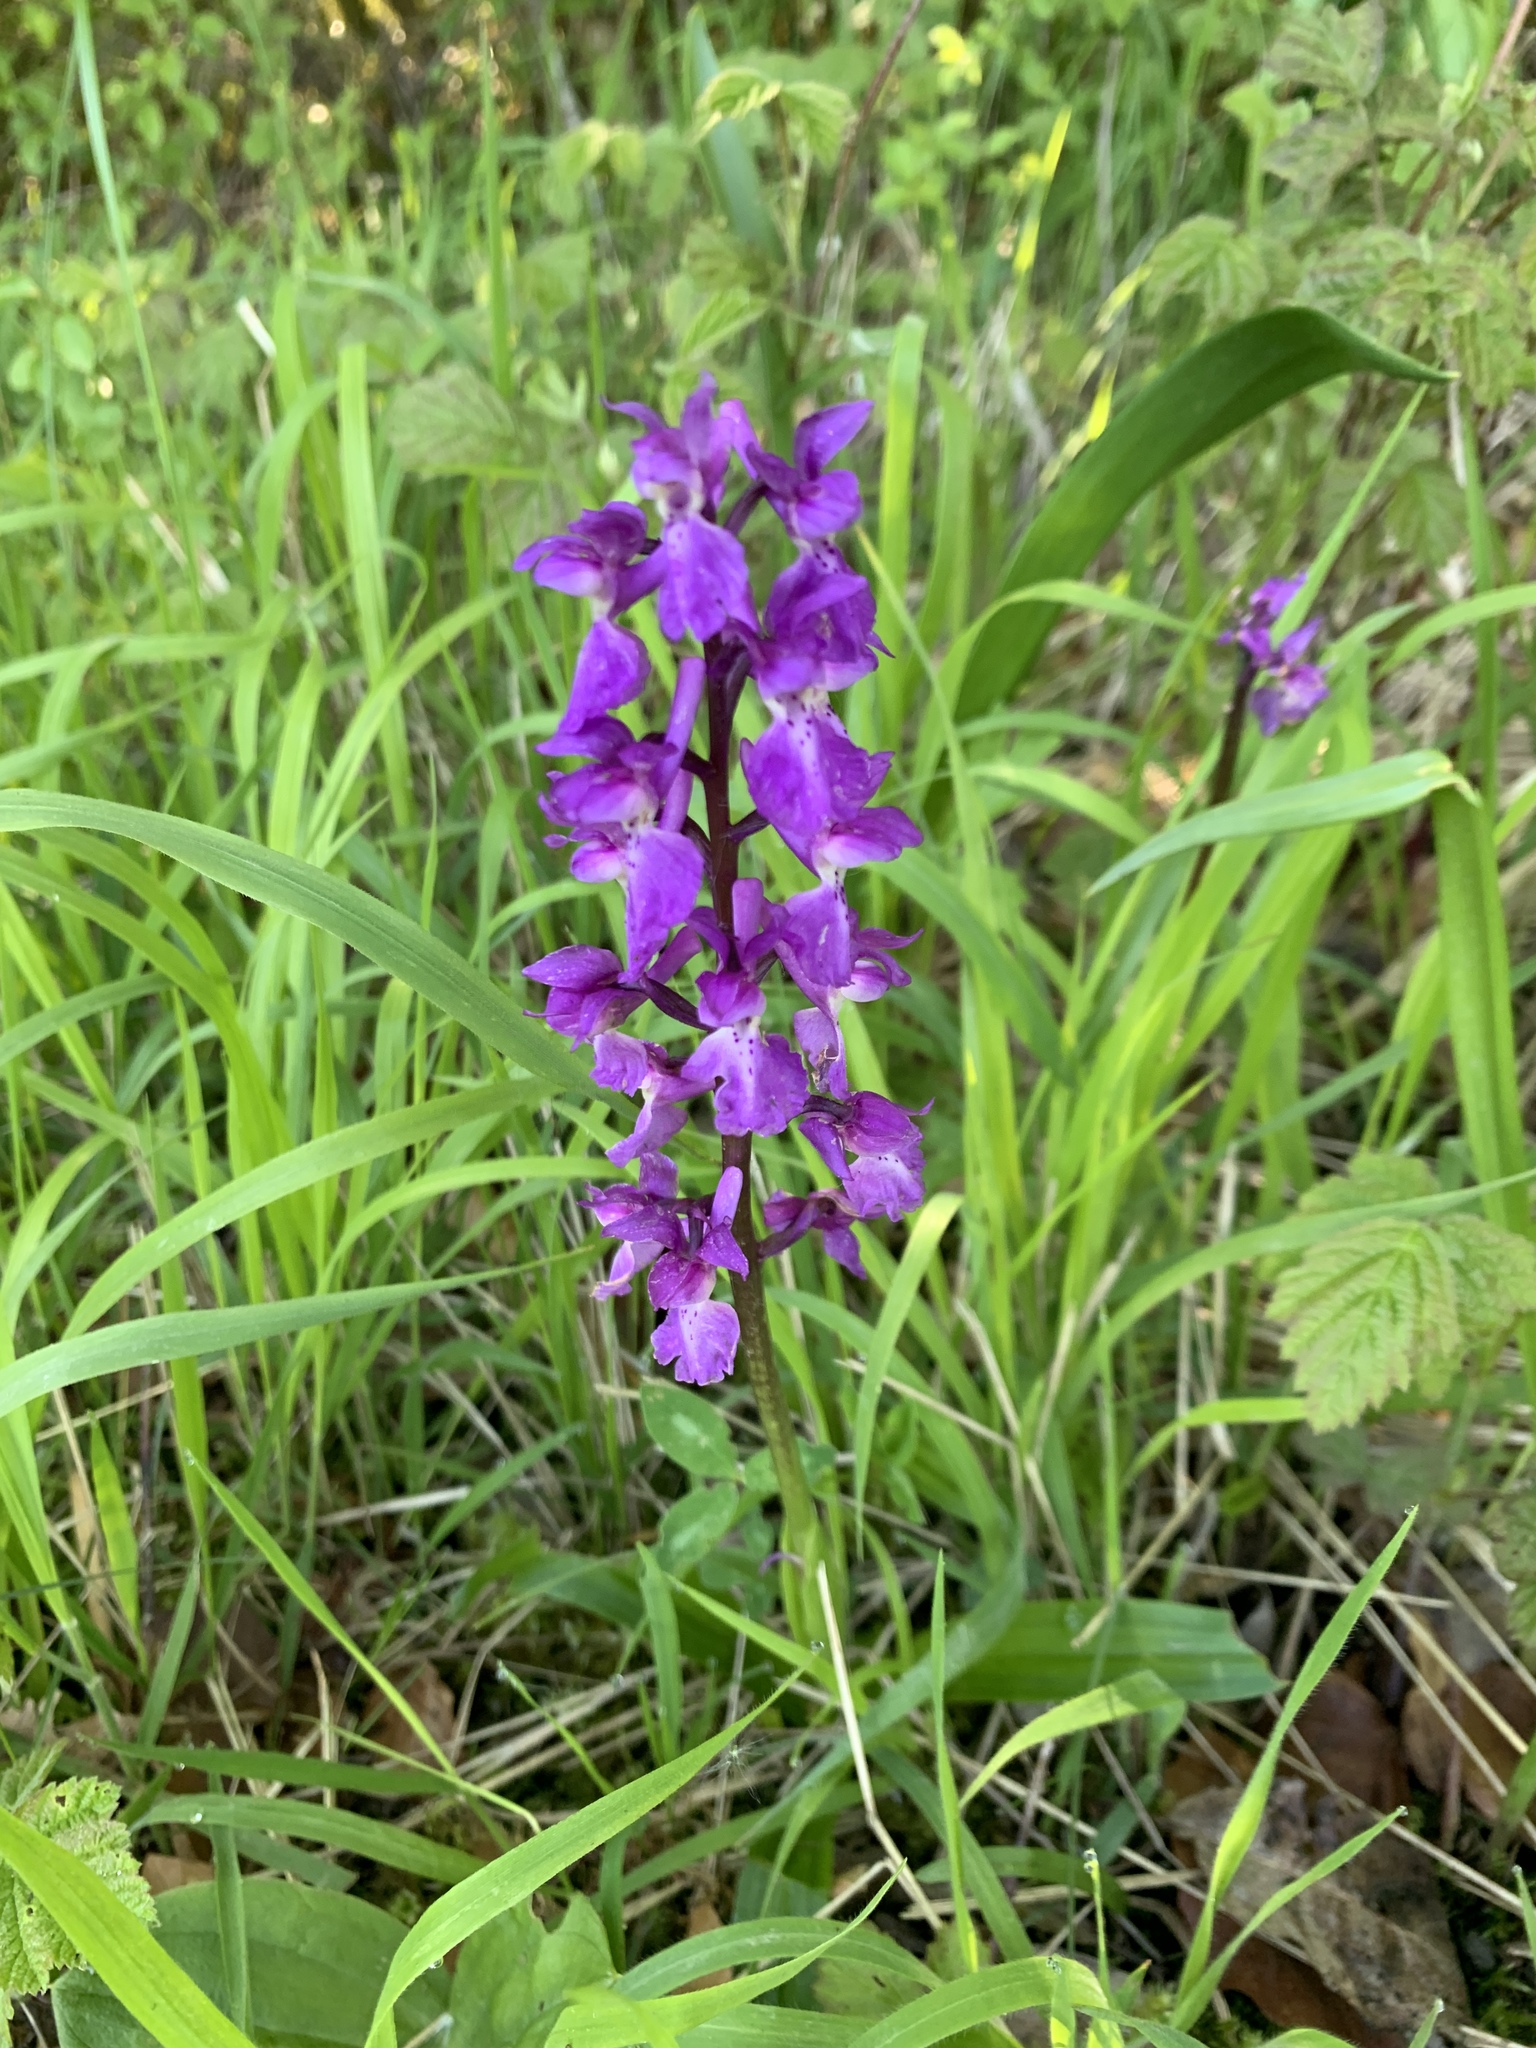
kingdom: Plantae
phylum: Tracheophyta
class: Liliopsida
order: Asparagales
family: Orchidaceae
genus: Orchis
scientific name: Orchis mascula
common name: Early-purple orchid
